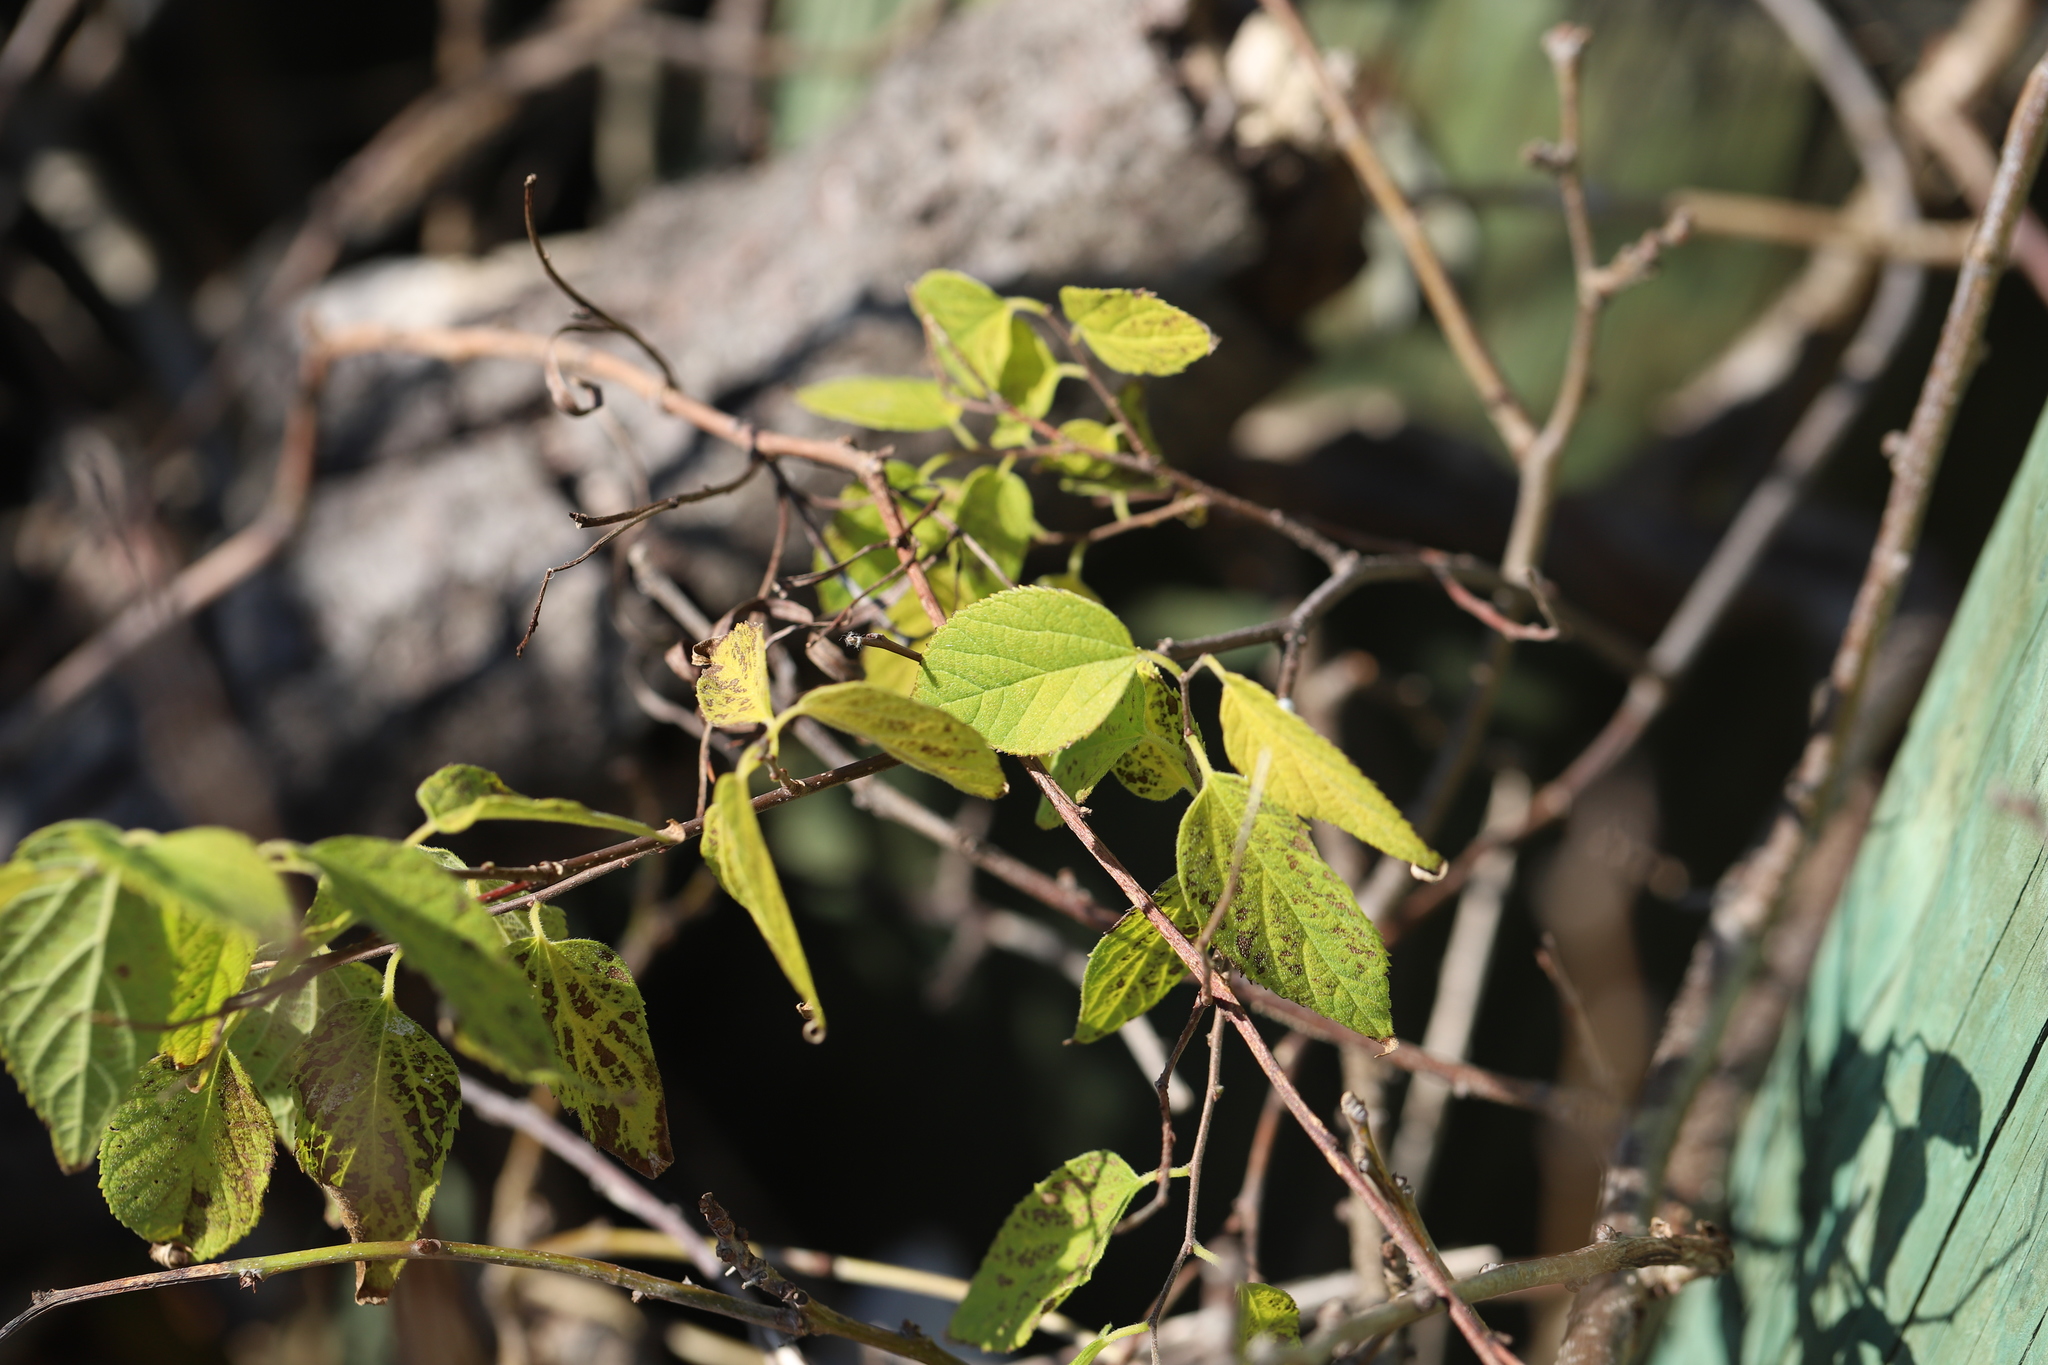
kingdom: Plantae
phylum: Tracheophyta
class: Magnoliopsida
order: Celastrales
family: Celastraceae
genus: Celastrus
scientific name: Celastrus orbiculatus
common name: Oriental bittersweet
